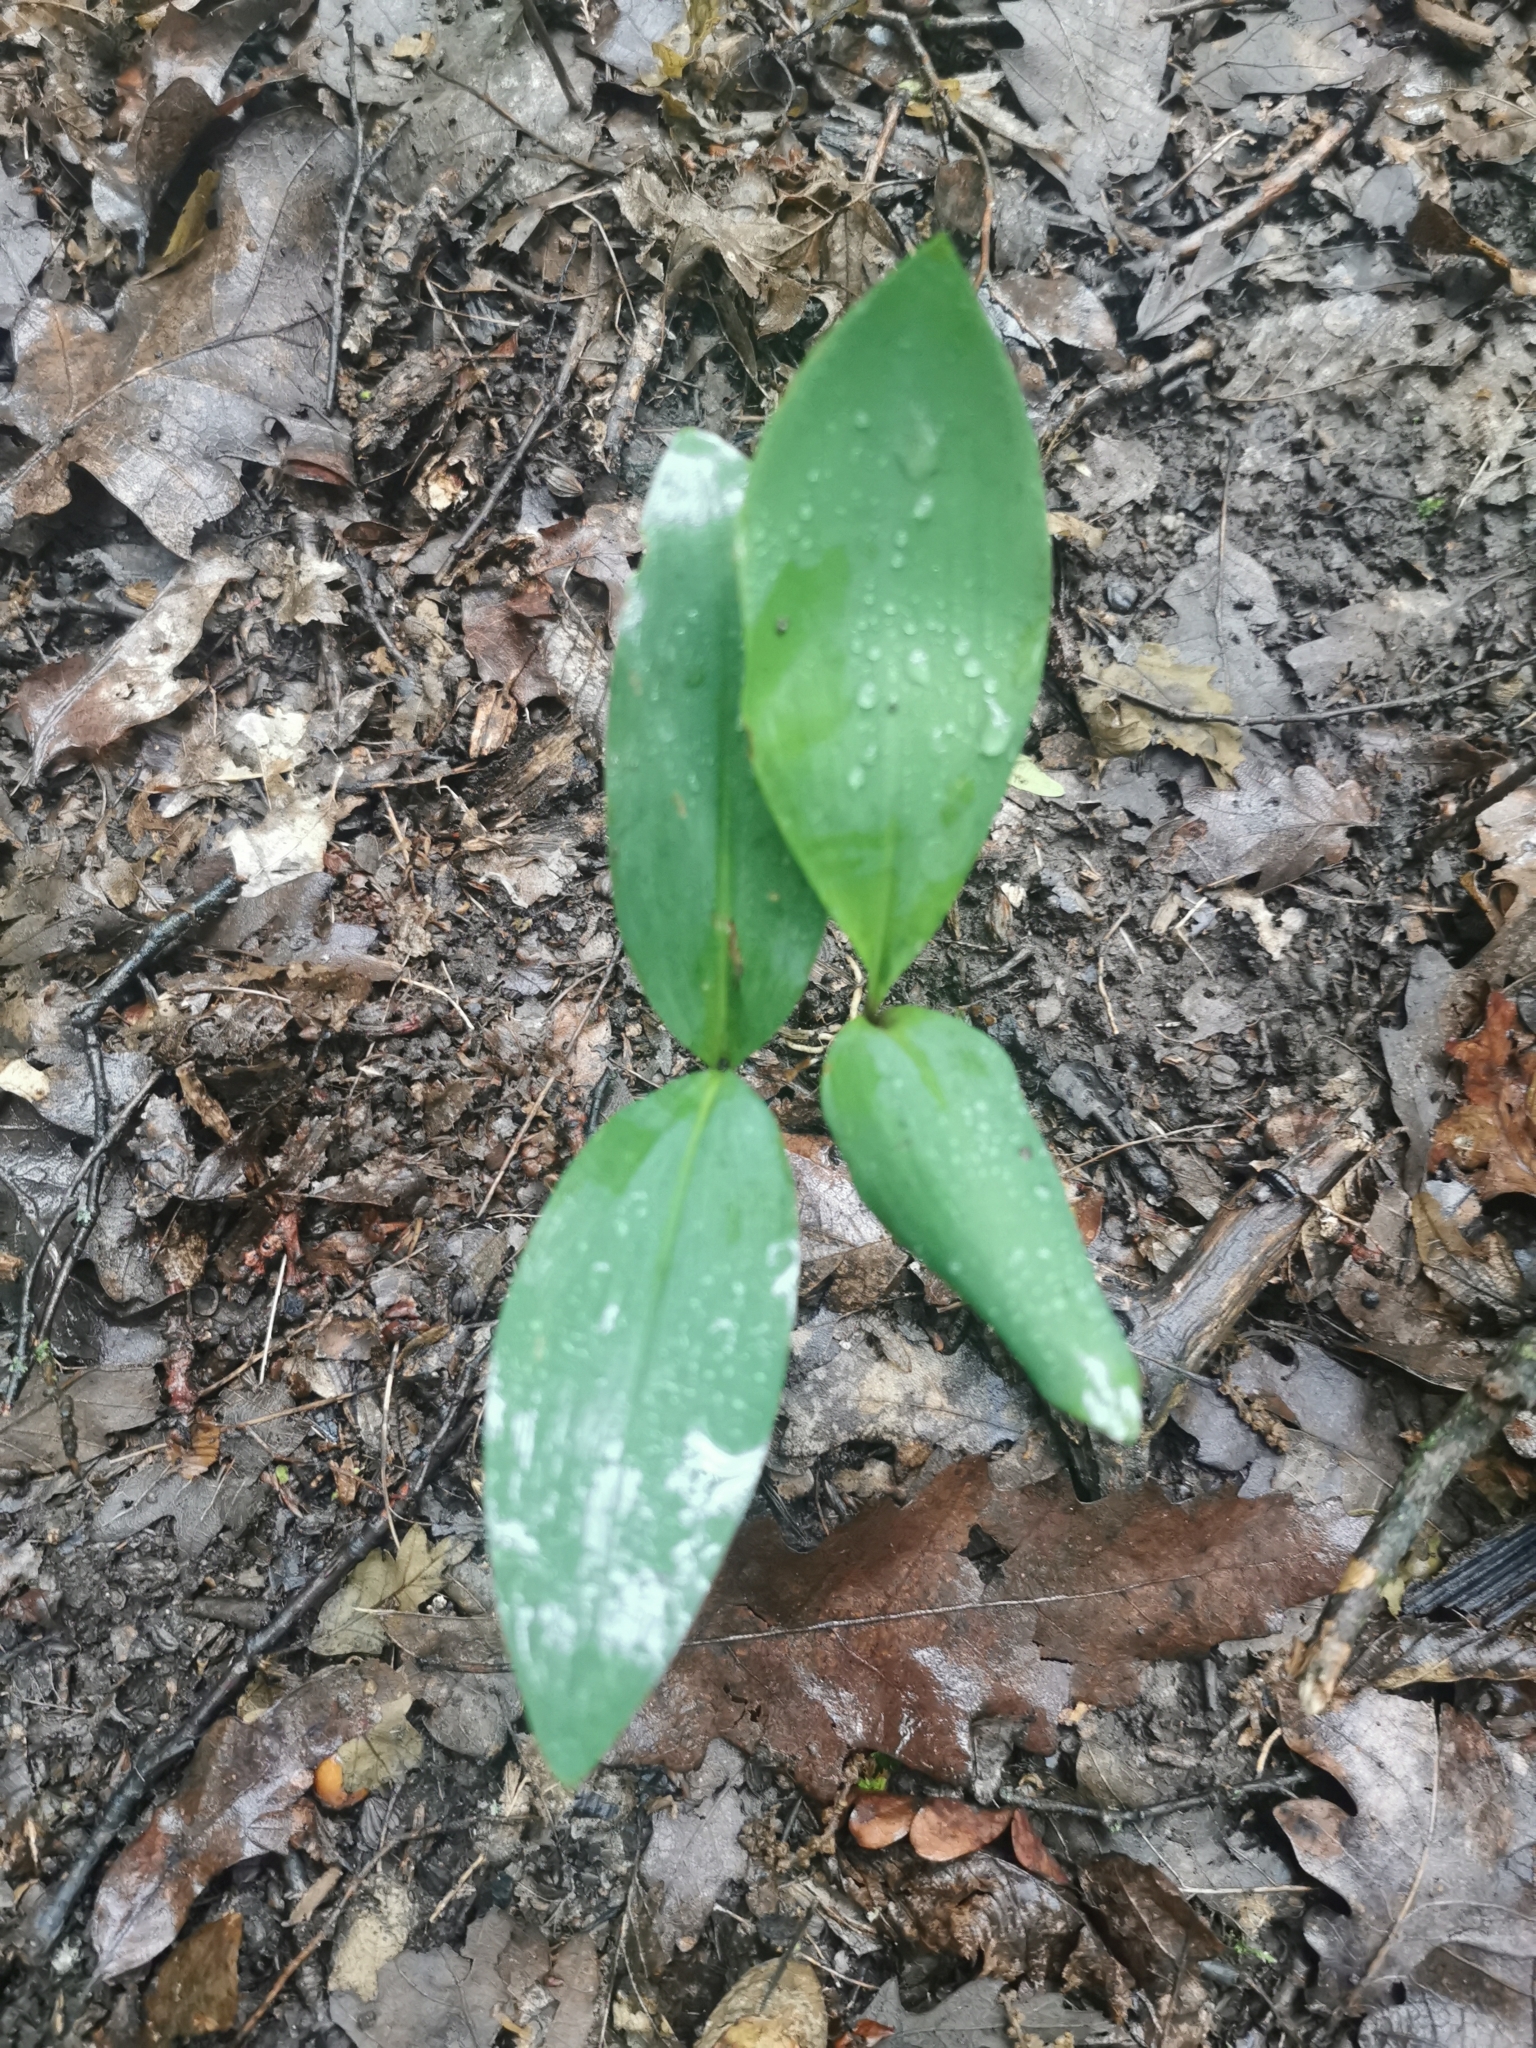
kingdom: Plantae
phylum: Tracheophyta
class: Liliopsida
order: Asparagales
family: Asparagaceae
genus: Convallaria
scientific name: Convallaria majalis
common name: Lily-of-the-valley
